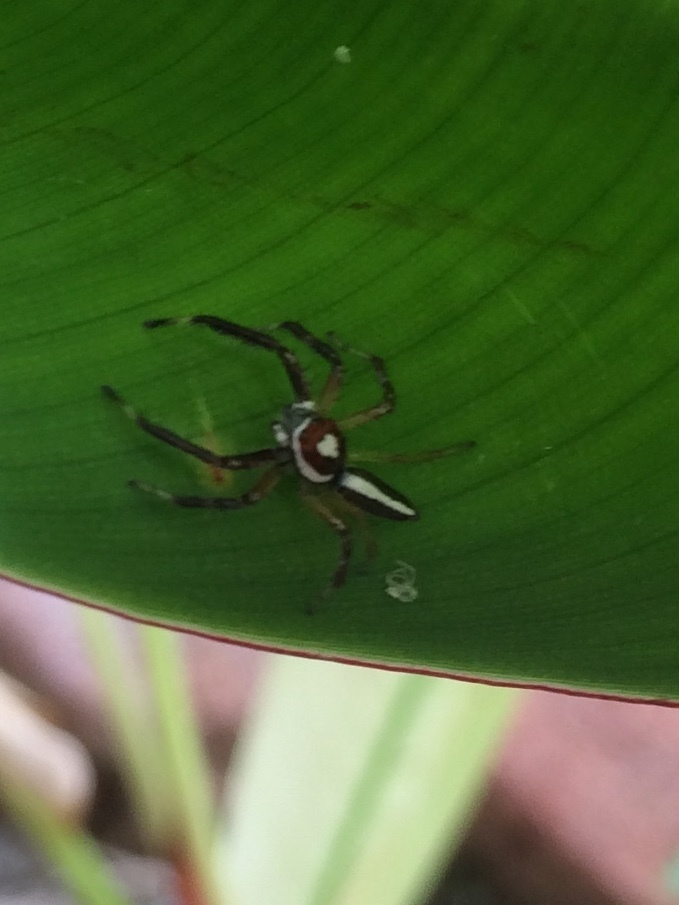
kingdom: Animalia
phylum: Arthropoda
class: Arachnida
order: Araneae
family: Salticidae
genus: Telamonia
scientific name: Telamonia dimidiata
